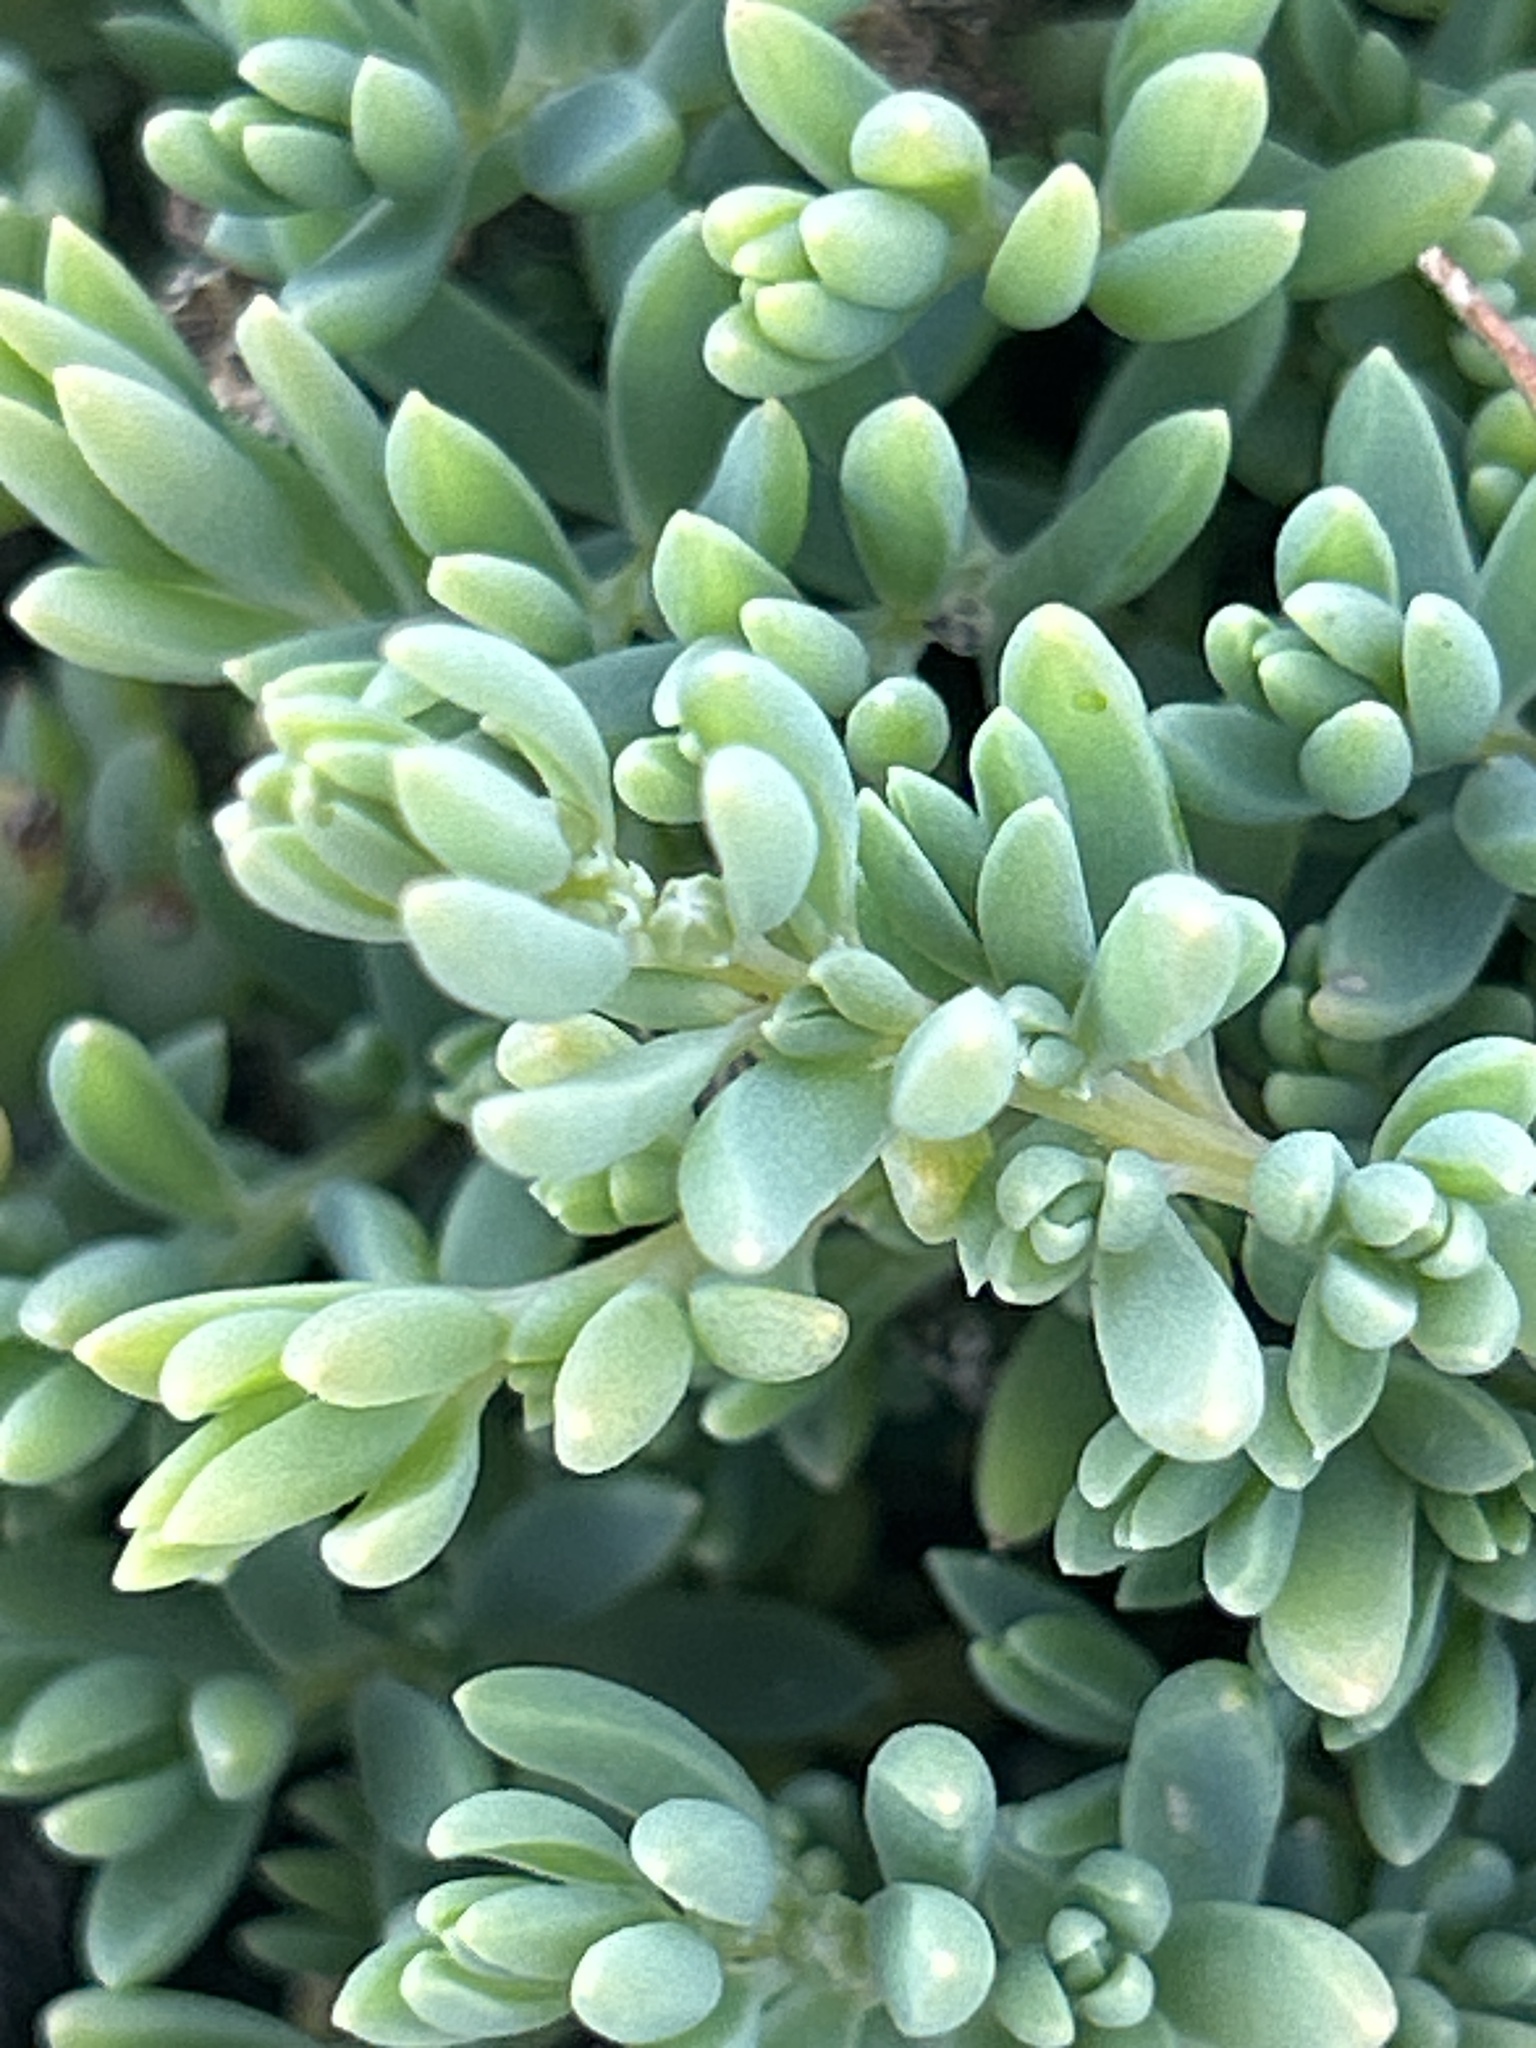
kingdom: Plantae
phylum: Tracheophyta
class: Magnoliopsida
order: Caryophyllales
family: Amaranthaceae
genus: Suaeda
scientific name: Suaeda novae-zelandiae
